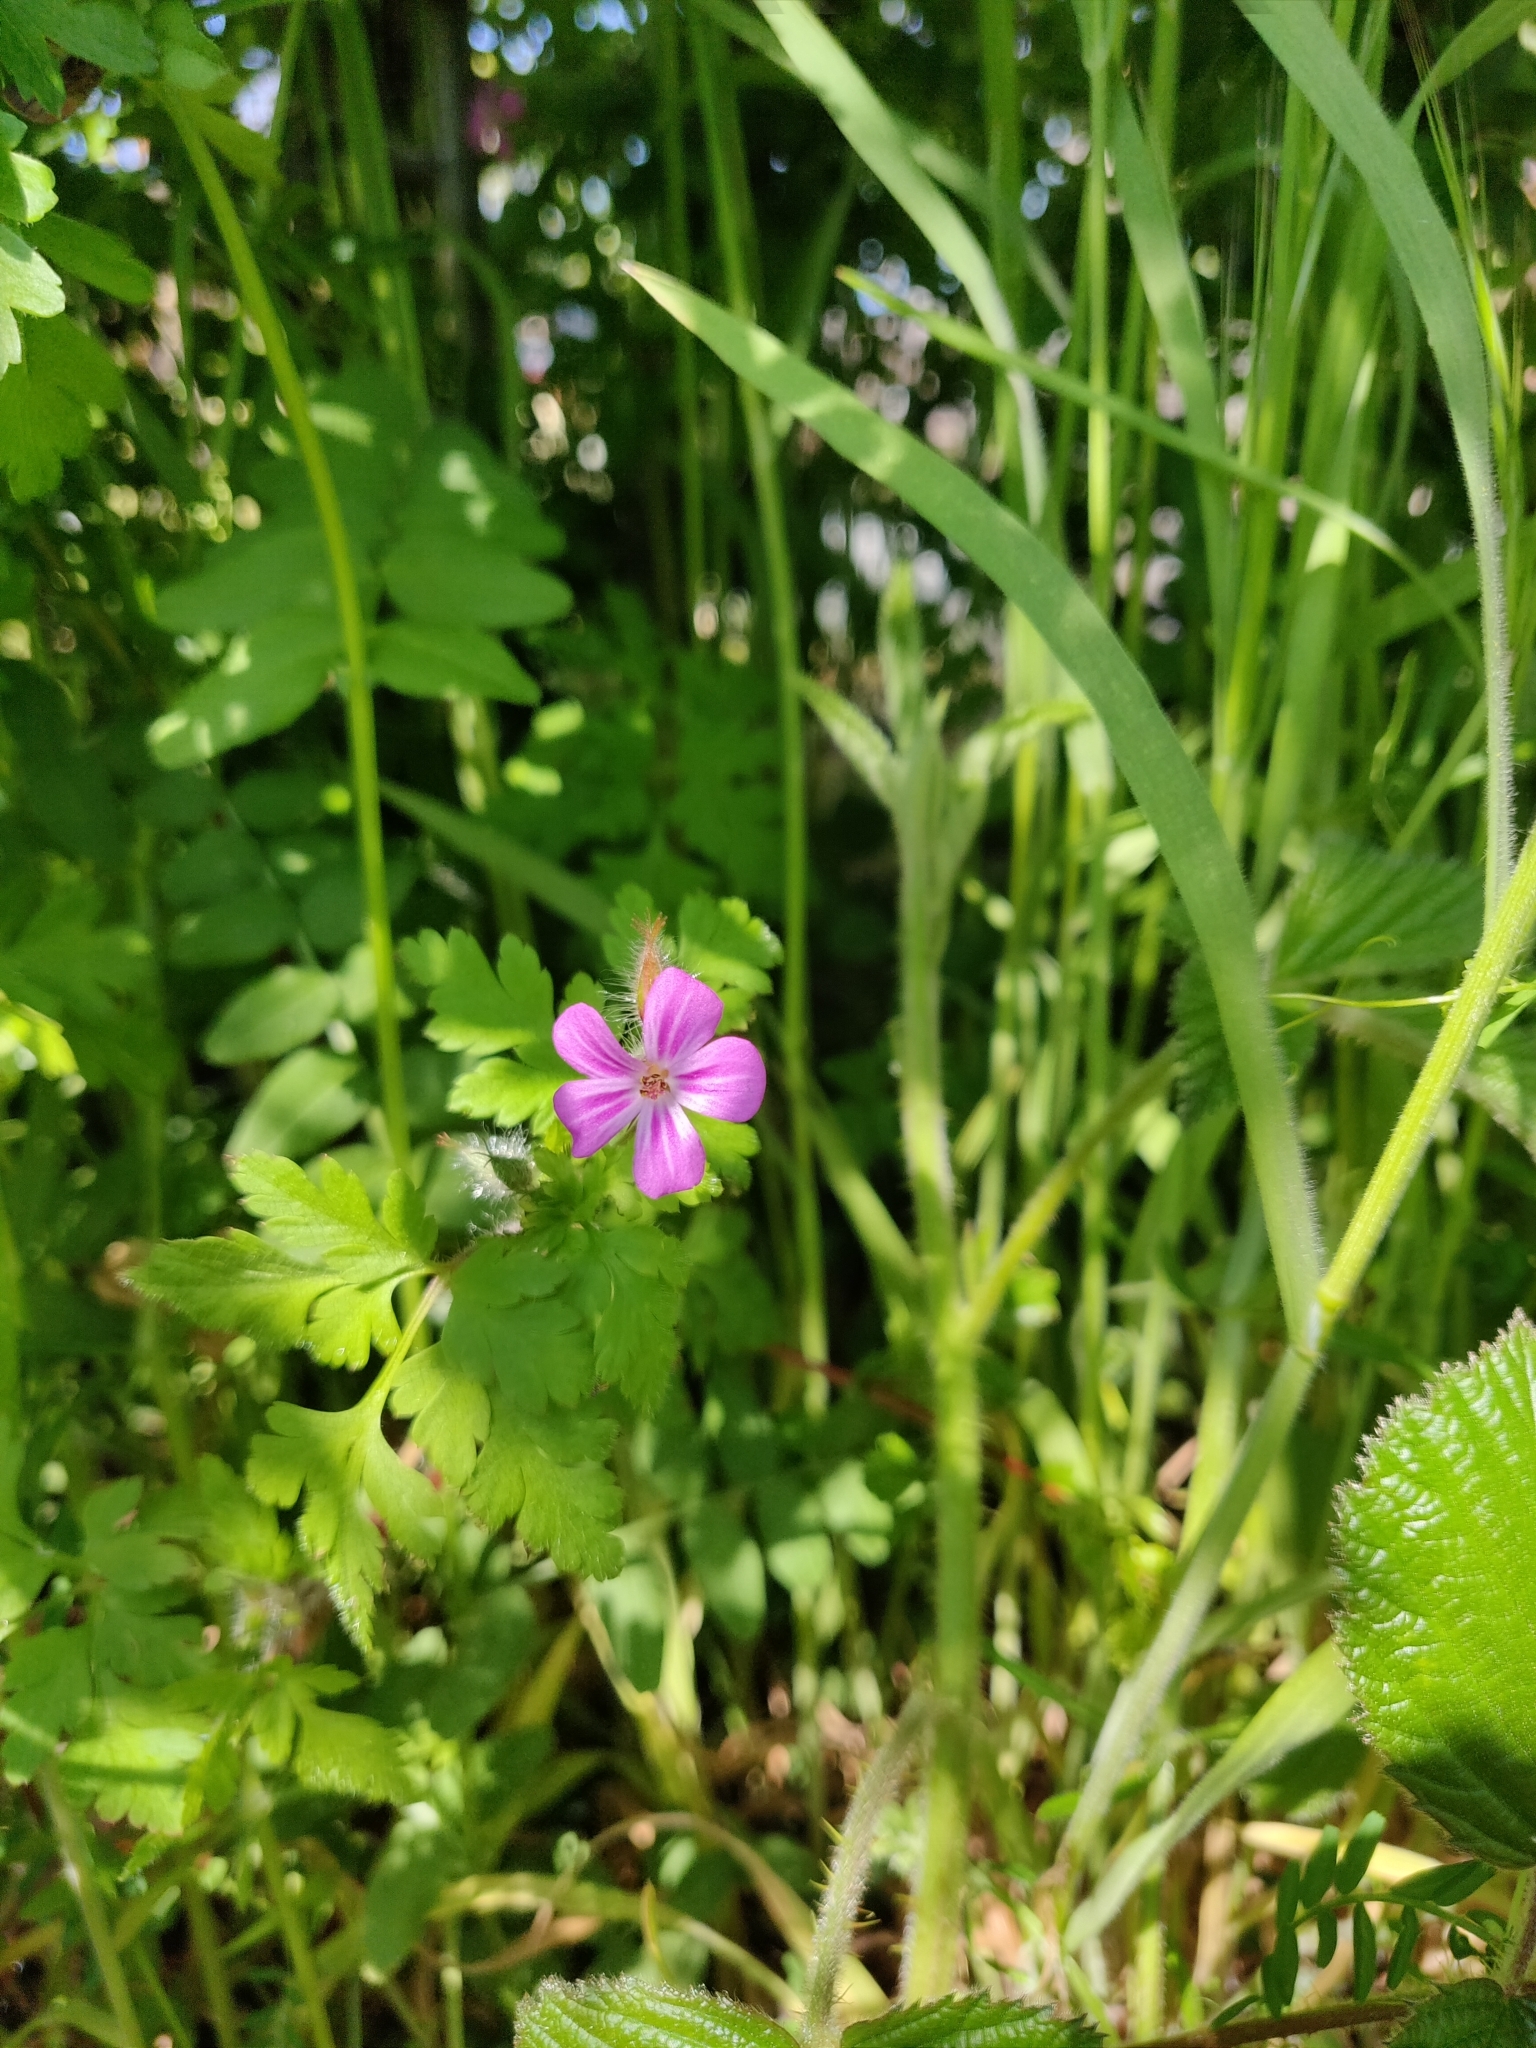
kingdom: Plantae
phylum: Tracheophyta
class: Magnoliopsida
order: Geraniales
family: Geraniaceae
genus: Geranium
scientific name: Geranium robertianum
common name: Herb-robert
